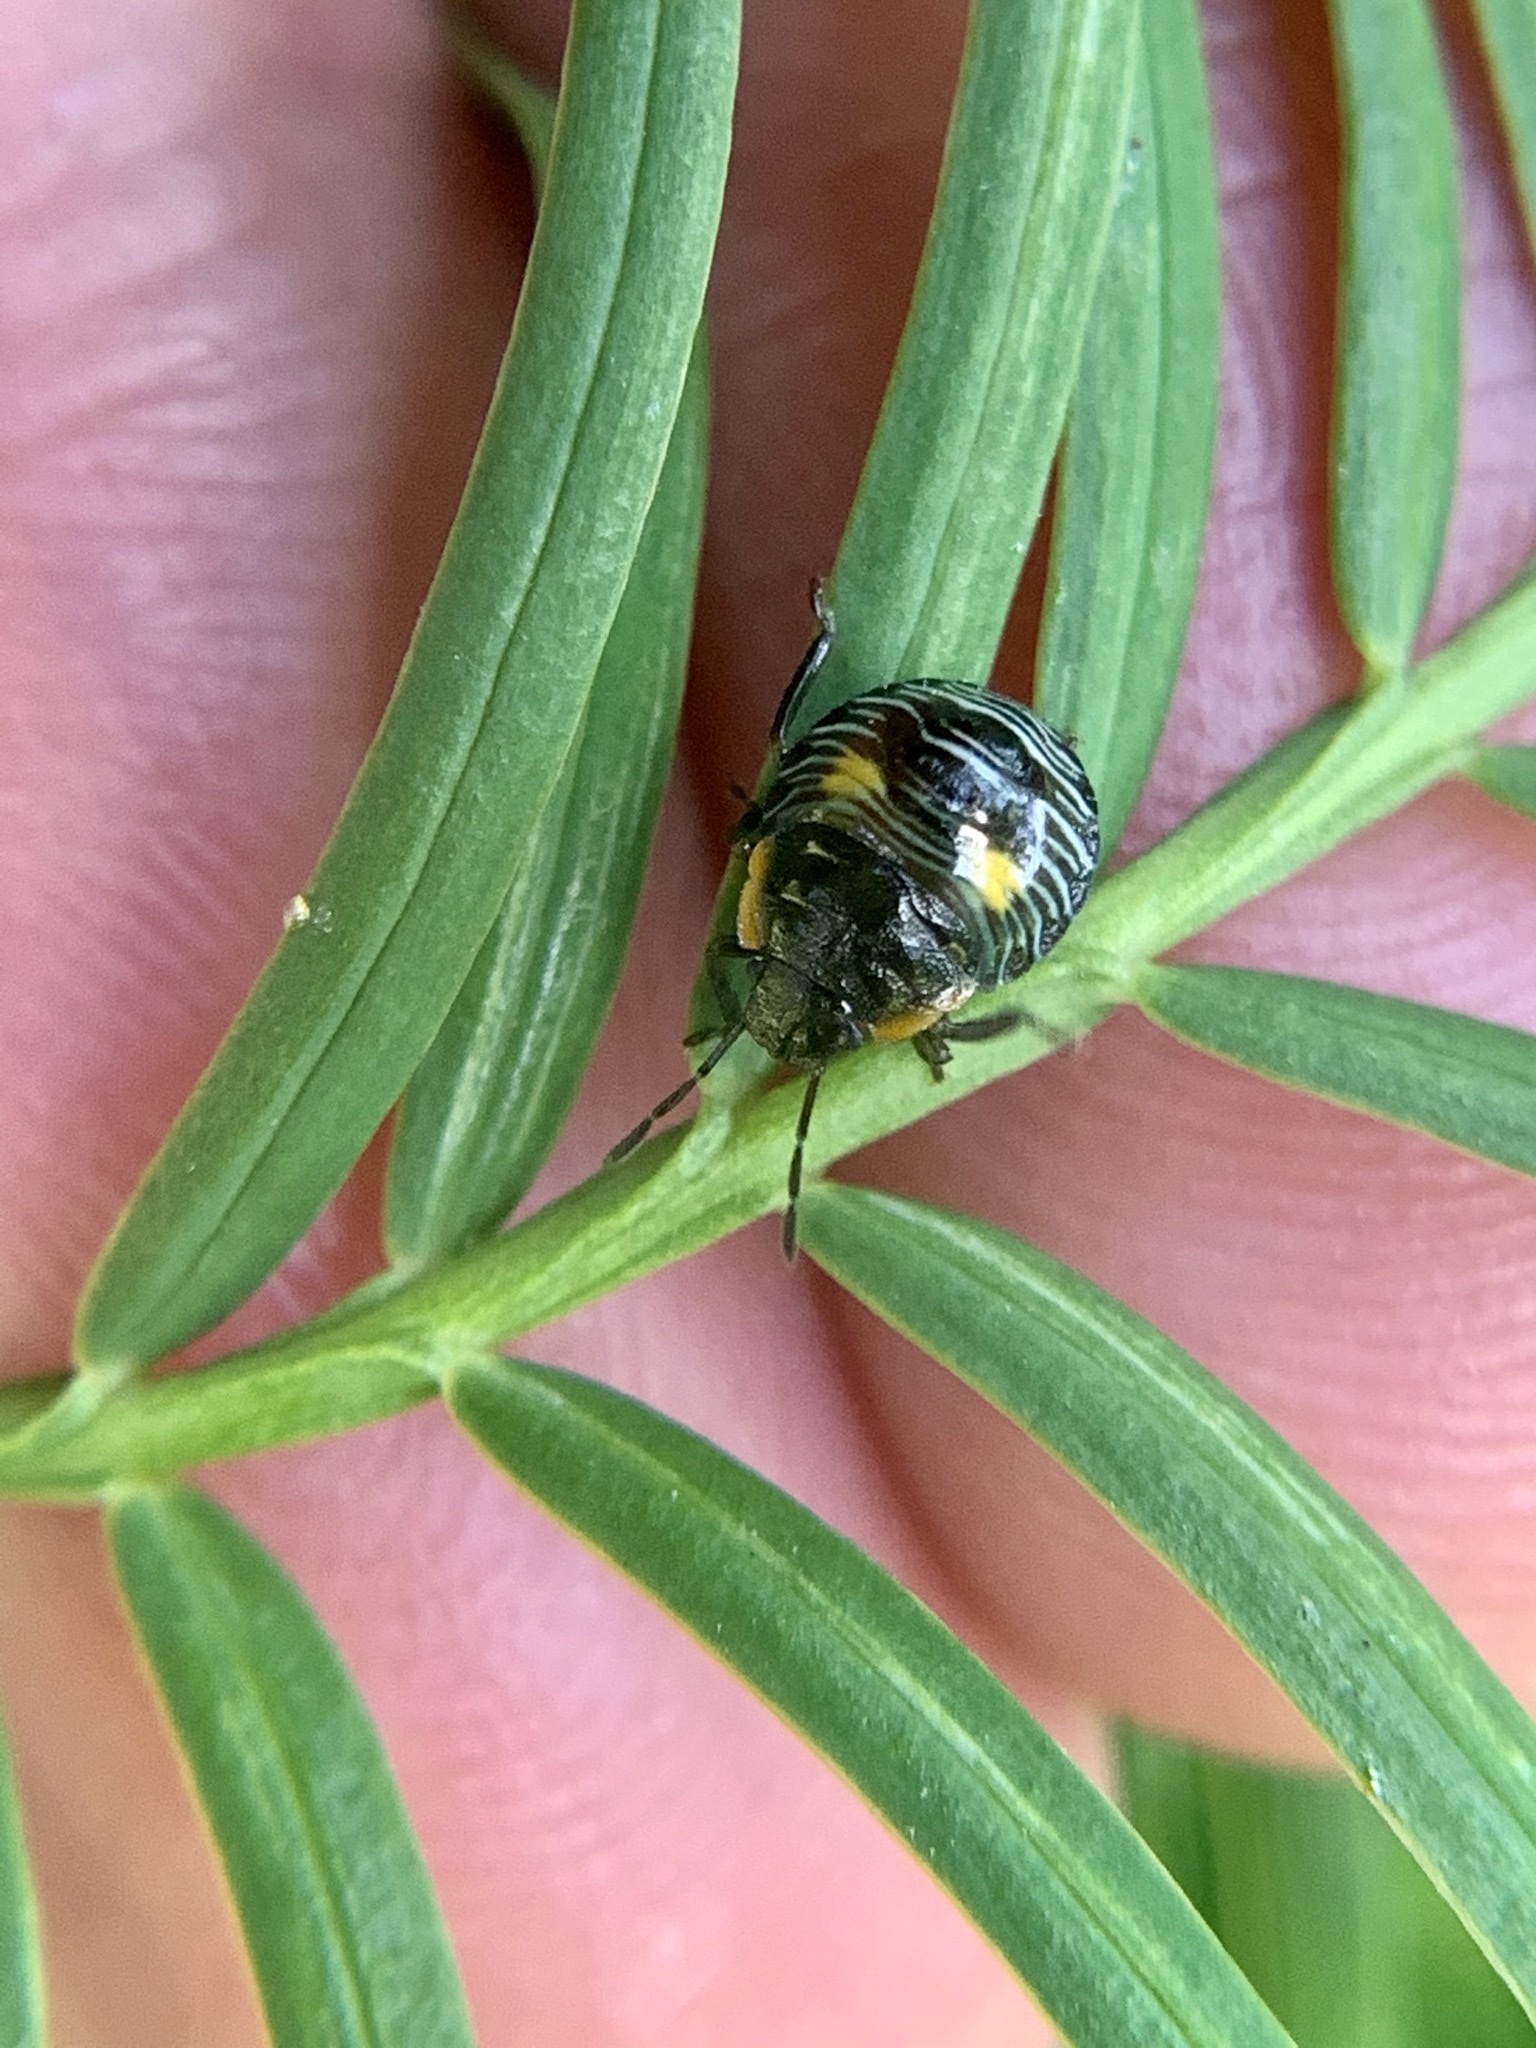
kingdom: Animalia
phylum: Arthropoda
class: Insecta
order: Hemiptera
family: Pentatomidae
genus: Chinavia
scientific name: Chinavia hilaris
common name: Green stink bug
